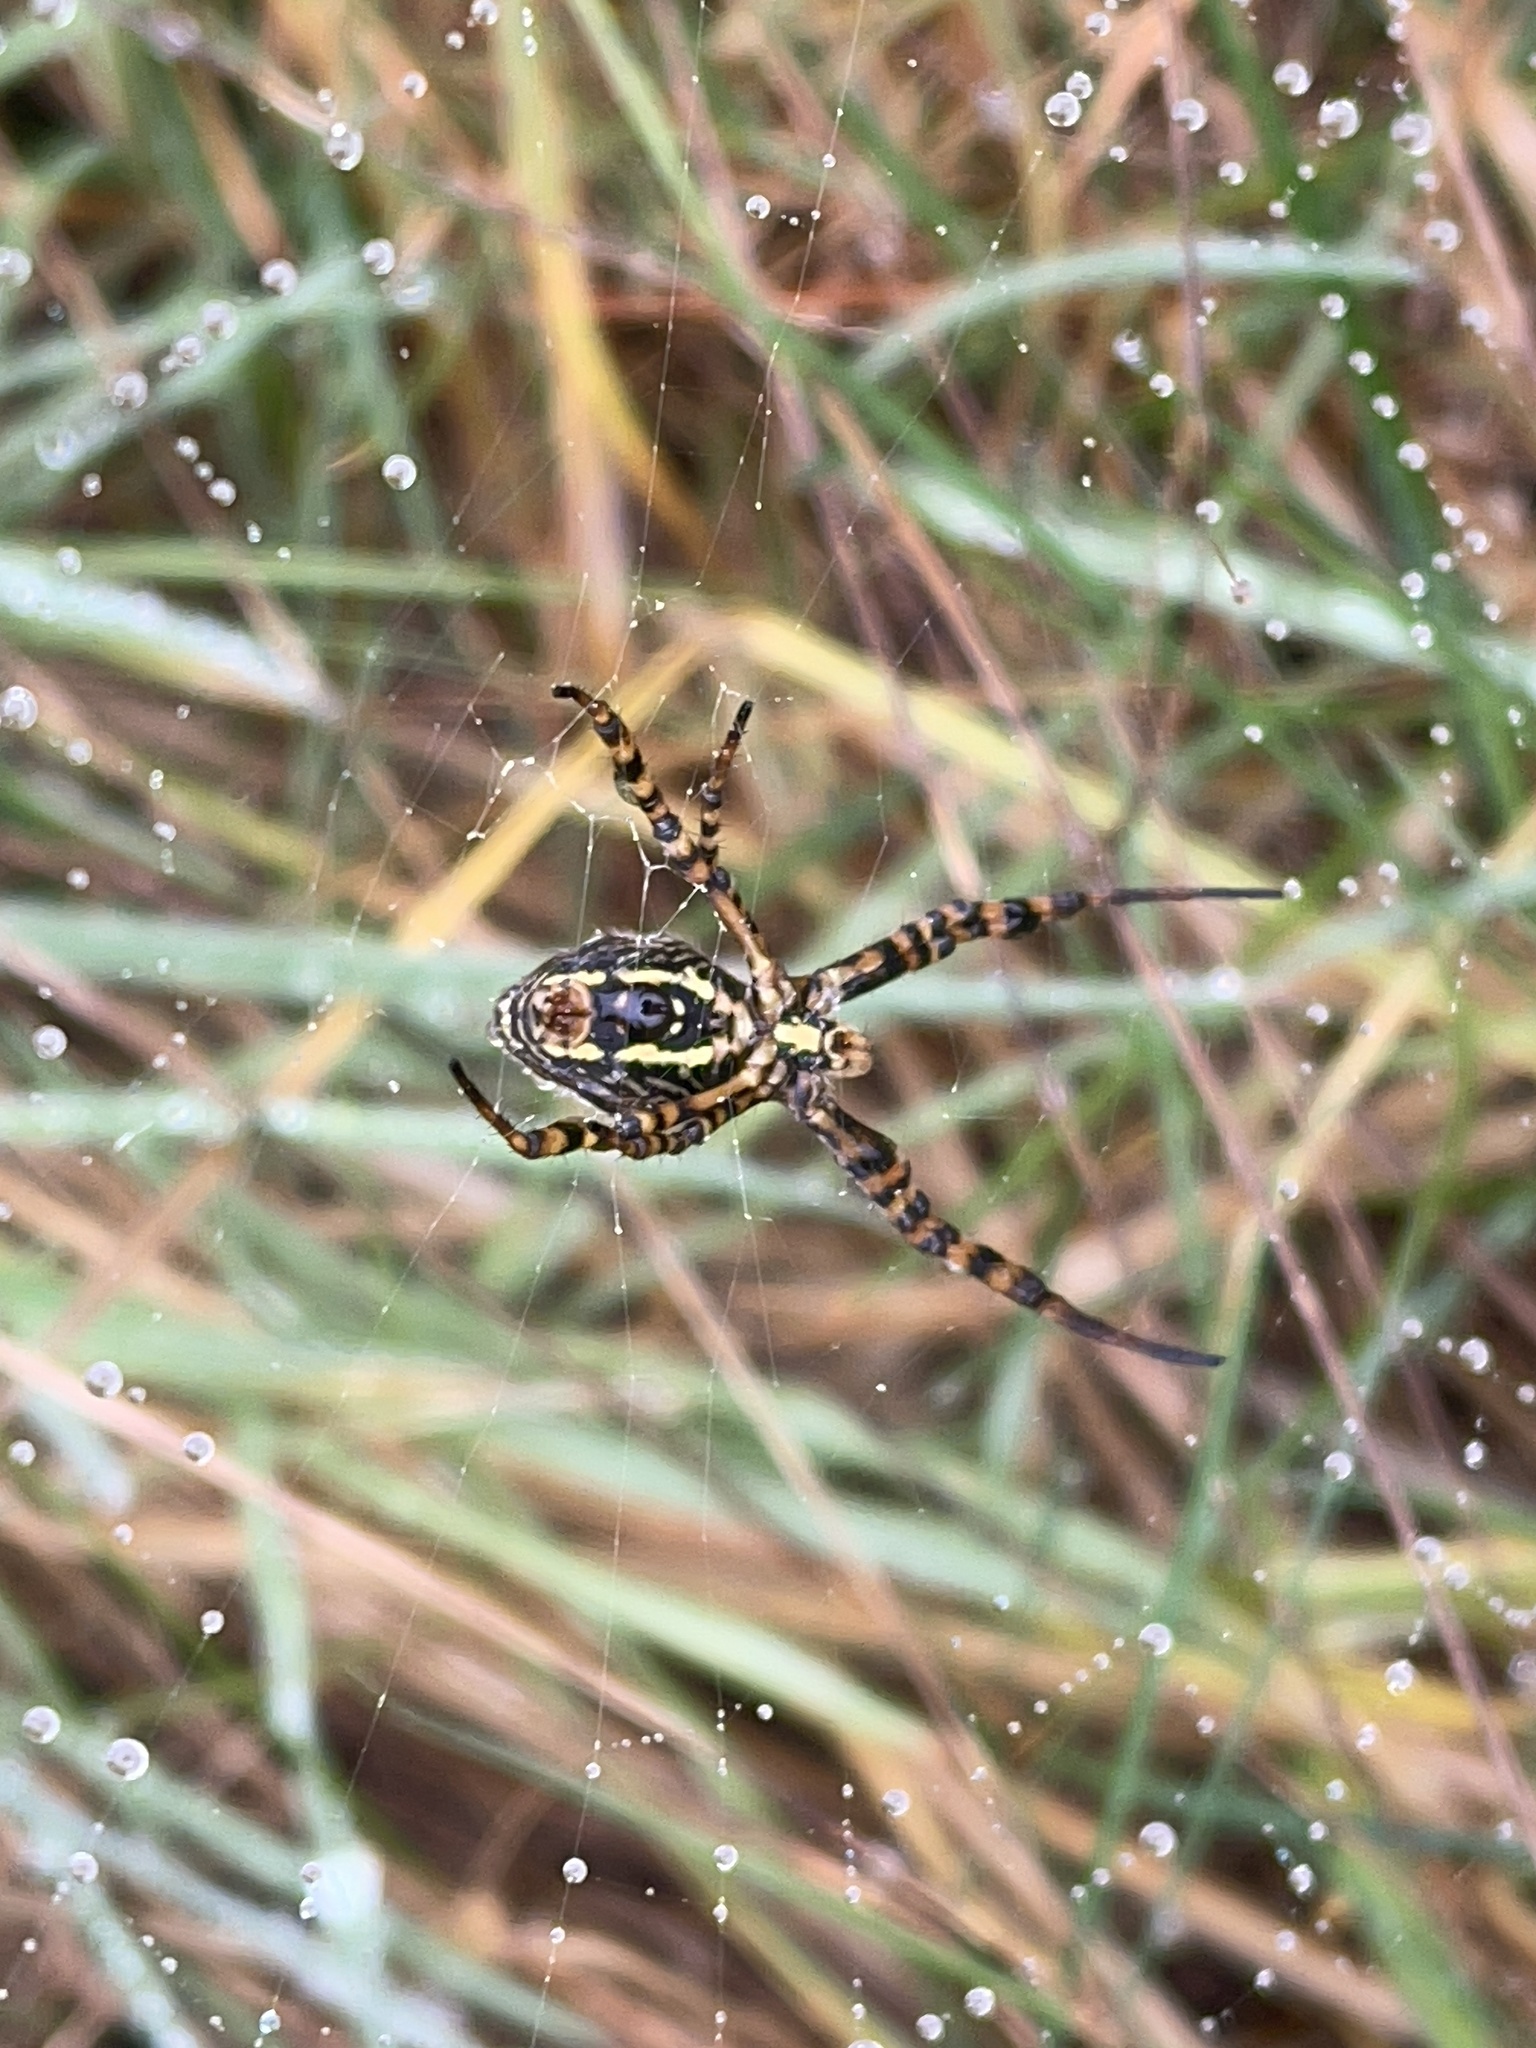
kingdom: Animalia
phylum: Arthropoda
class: Arachnida
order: Araneae
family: Araneidae
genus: Argiope
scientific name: Argiope trifasciata
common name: Banded garden spider
